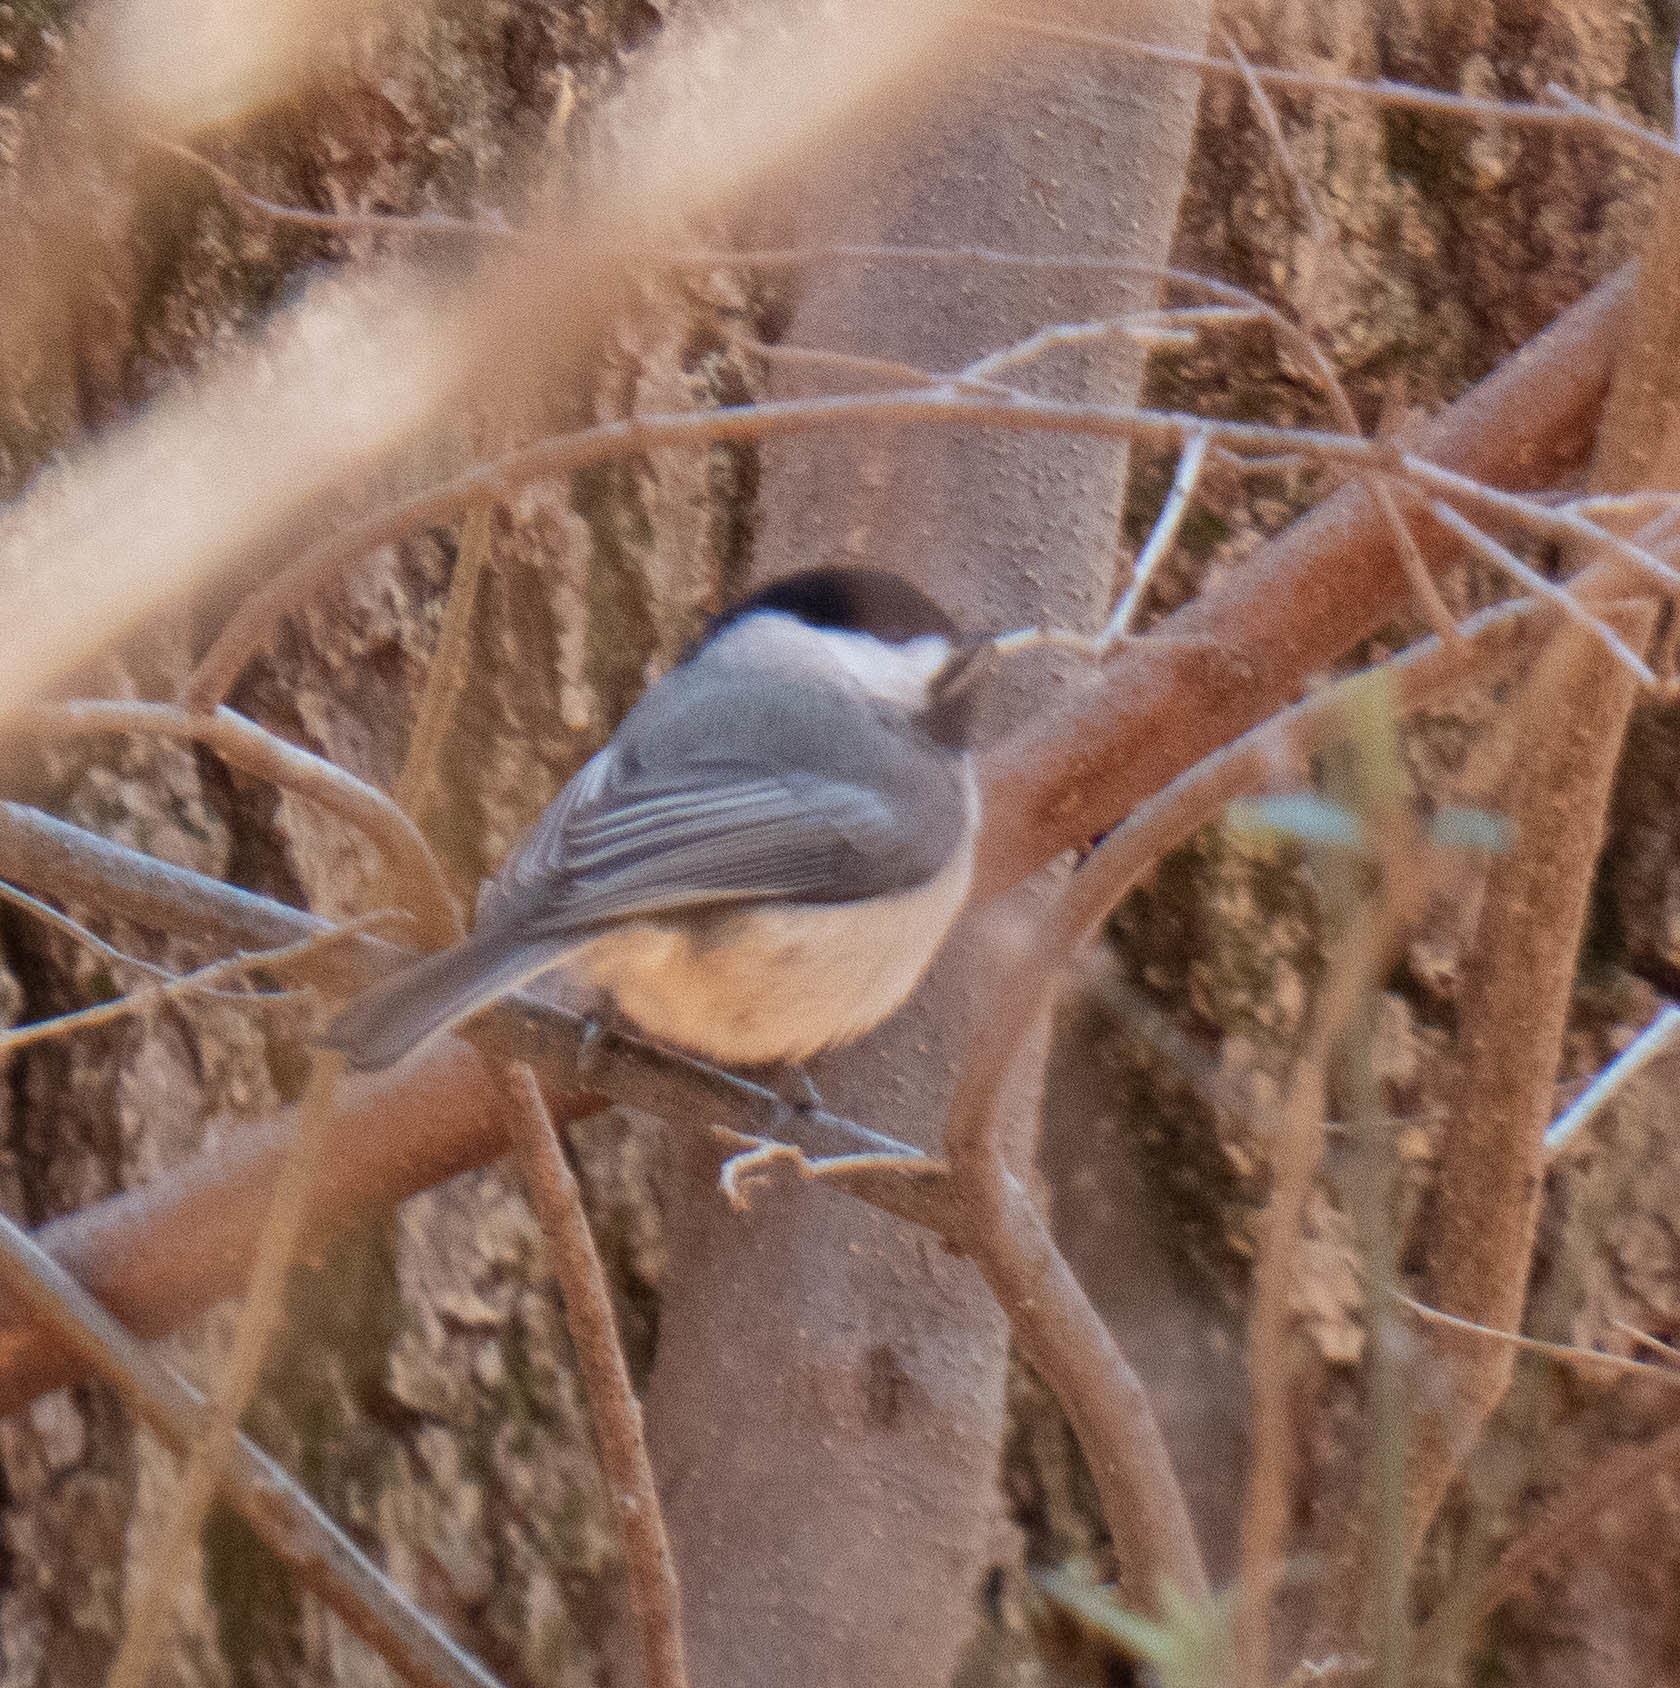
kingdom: Animalia
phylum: Chordata
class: Aves
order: Passeriformes
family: Paridae
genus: Poecile
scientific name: Poecile carolinensis
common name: Carolina chickadee
